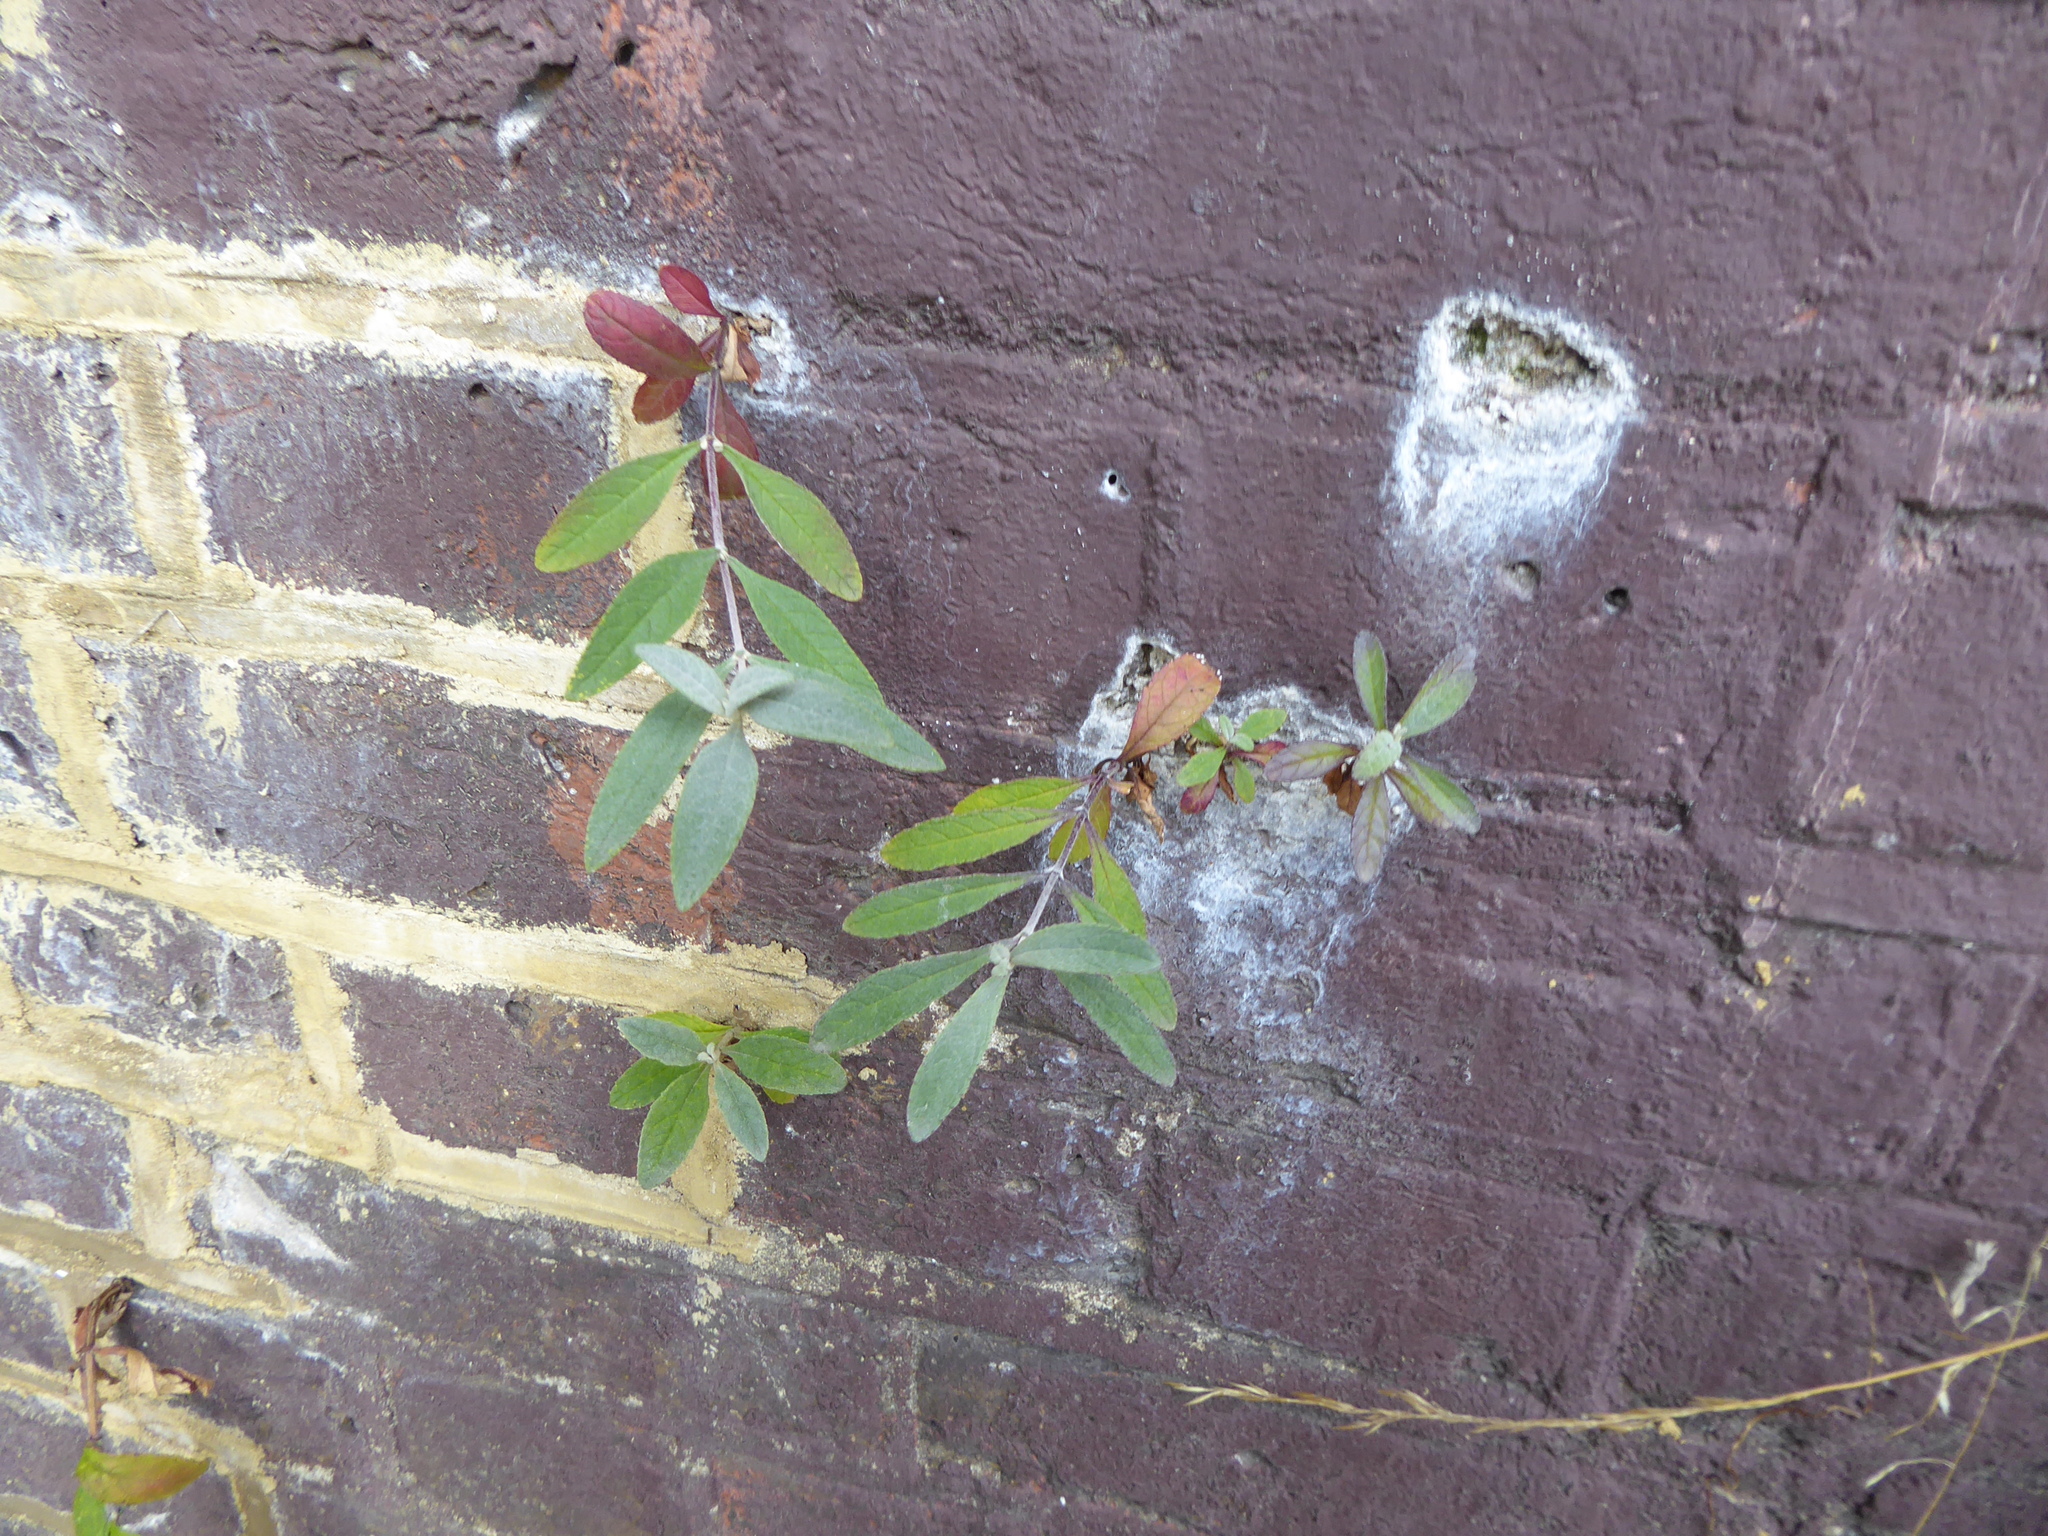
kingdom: Plantae
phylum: Tracheophyta
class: Magnoliopsida
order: Lamiales
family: Scrophulariaceae
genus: Buddleja
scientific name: Buddleja davidii
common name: Butterfly-bush
